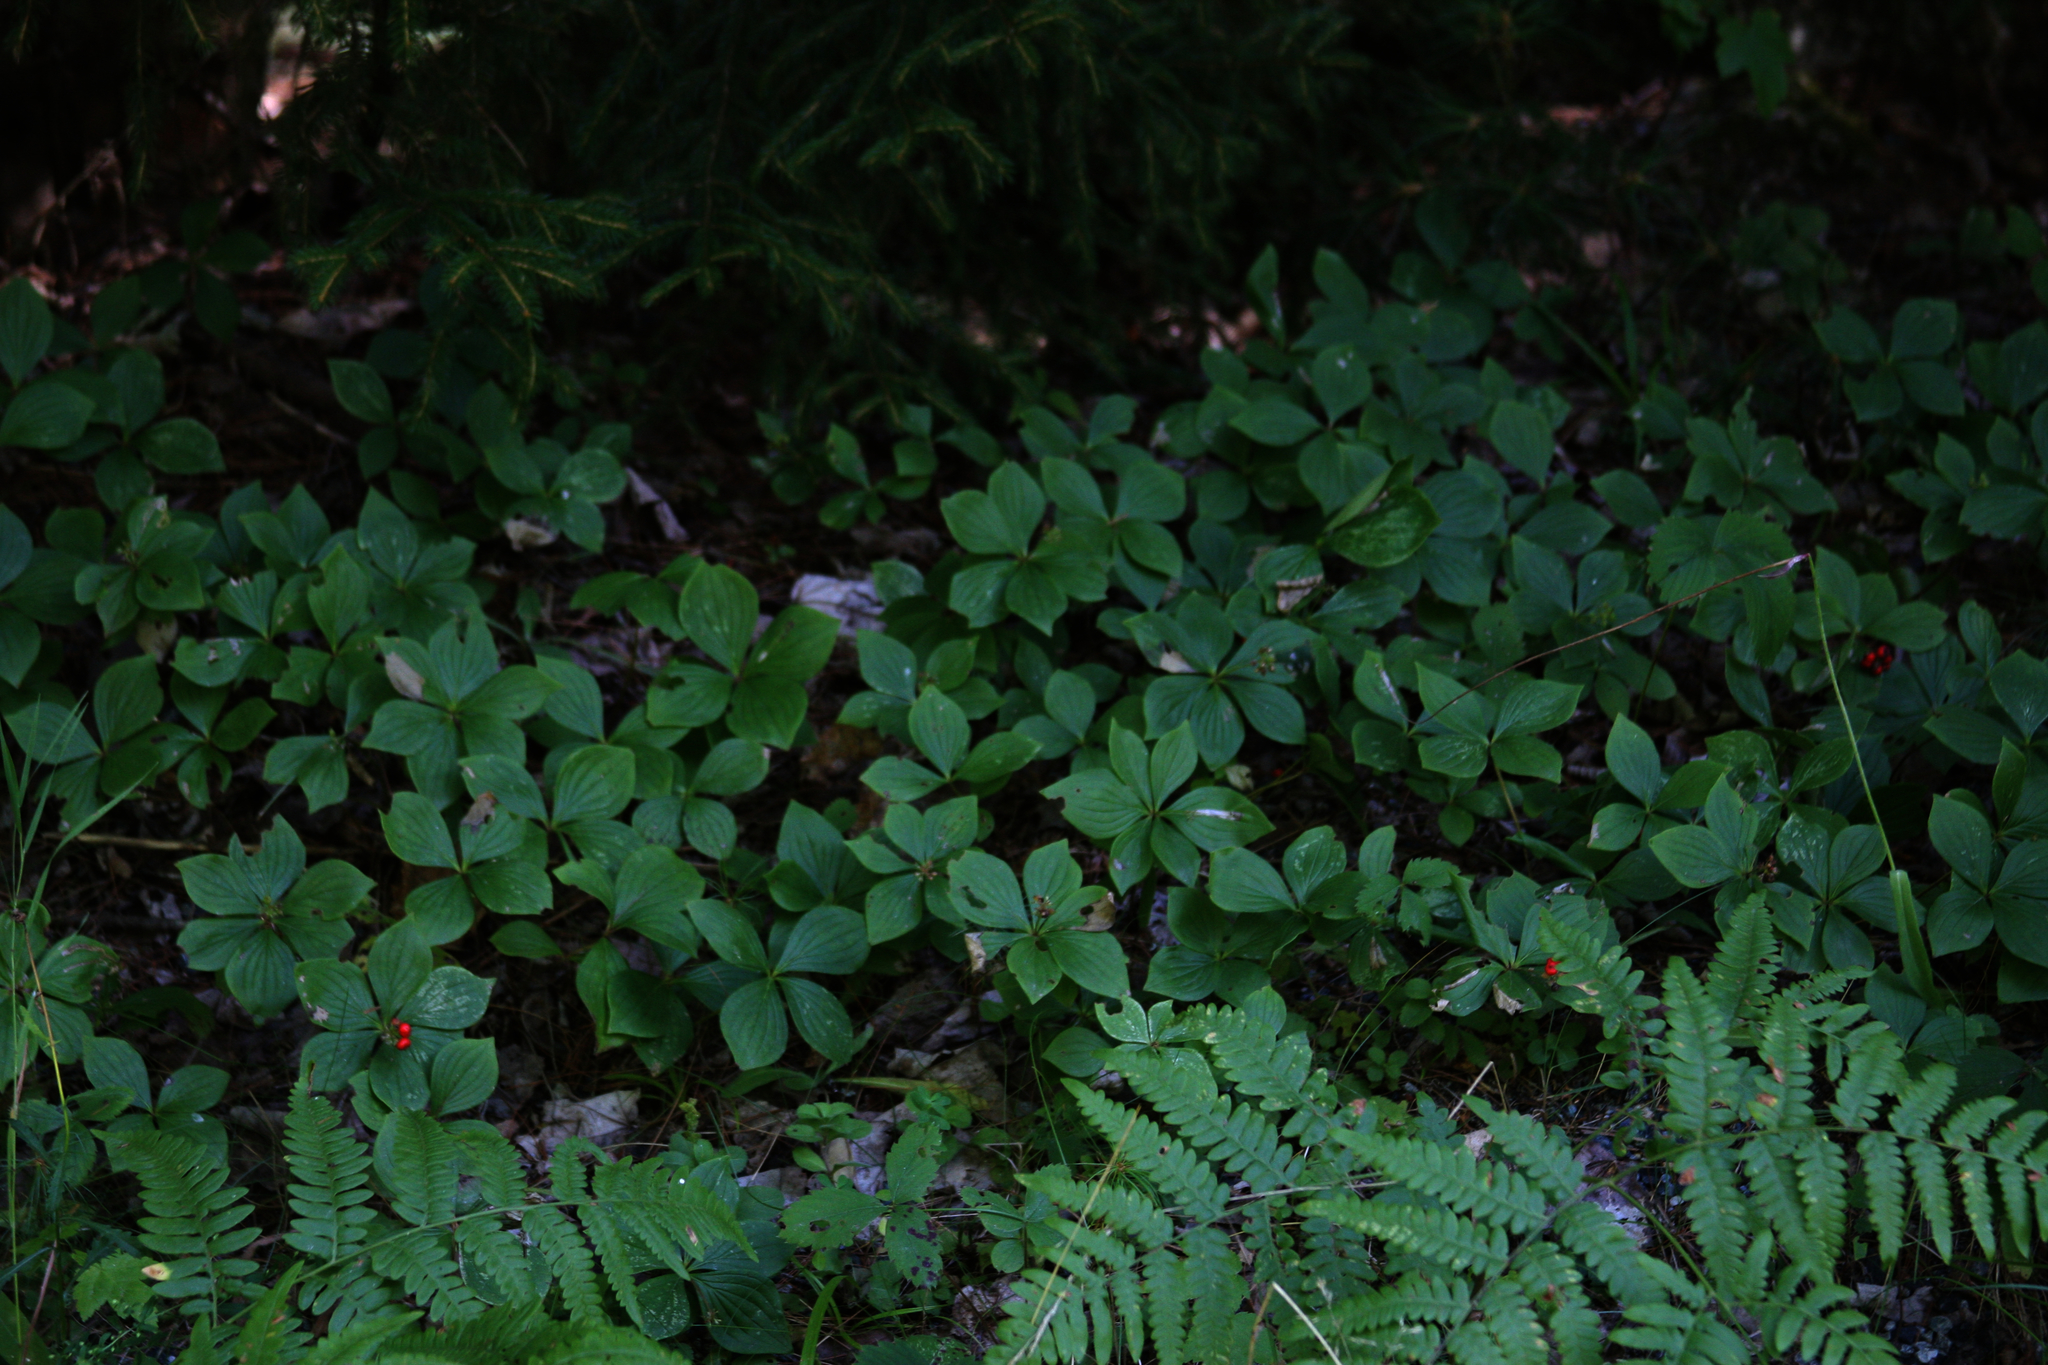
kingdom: Plantae
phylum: Tracheophyta
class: Magnoliopsida
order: Cornales
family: Cornaceae
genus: Cornus
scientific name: Cornus canadensis
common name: Creeping dogwood
